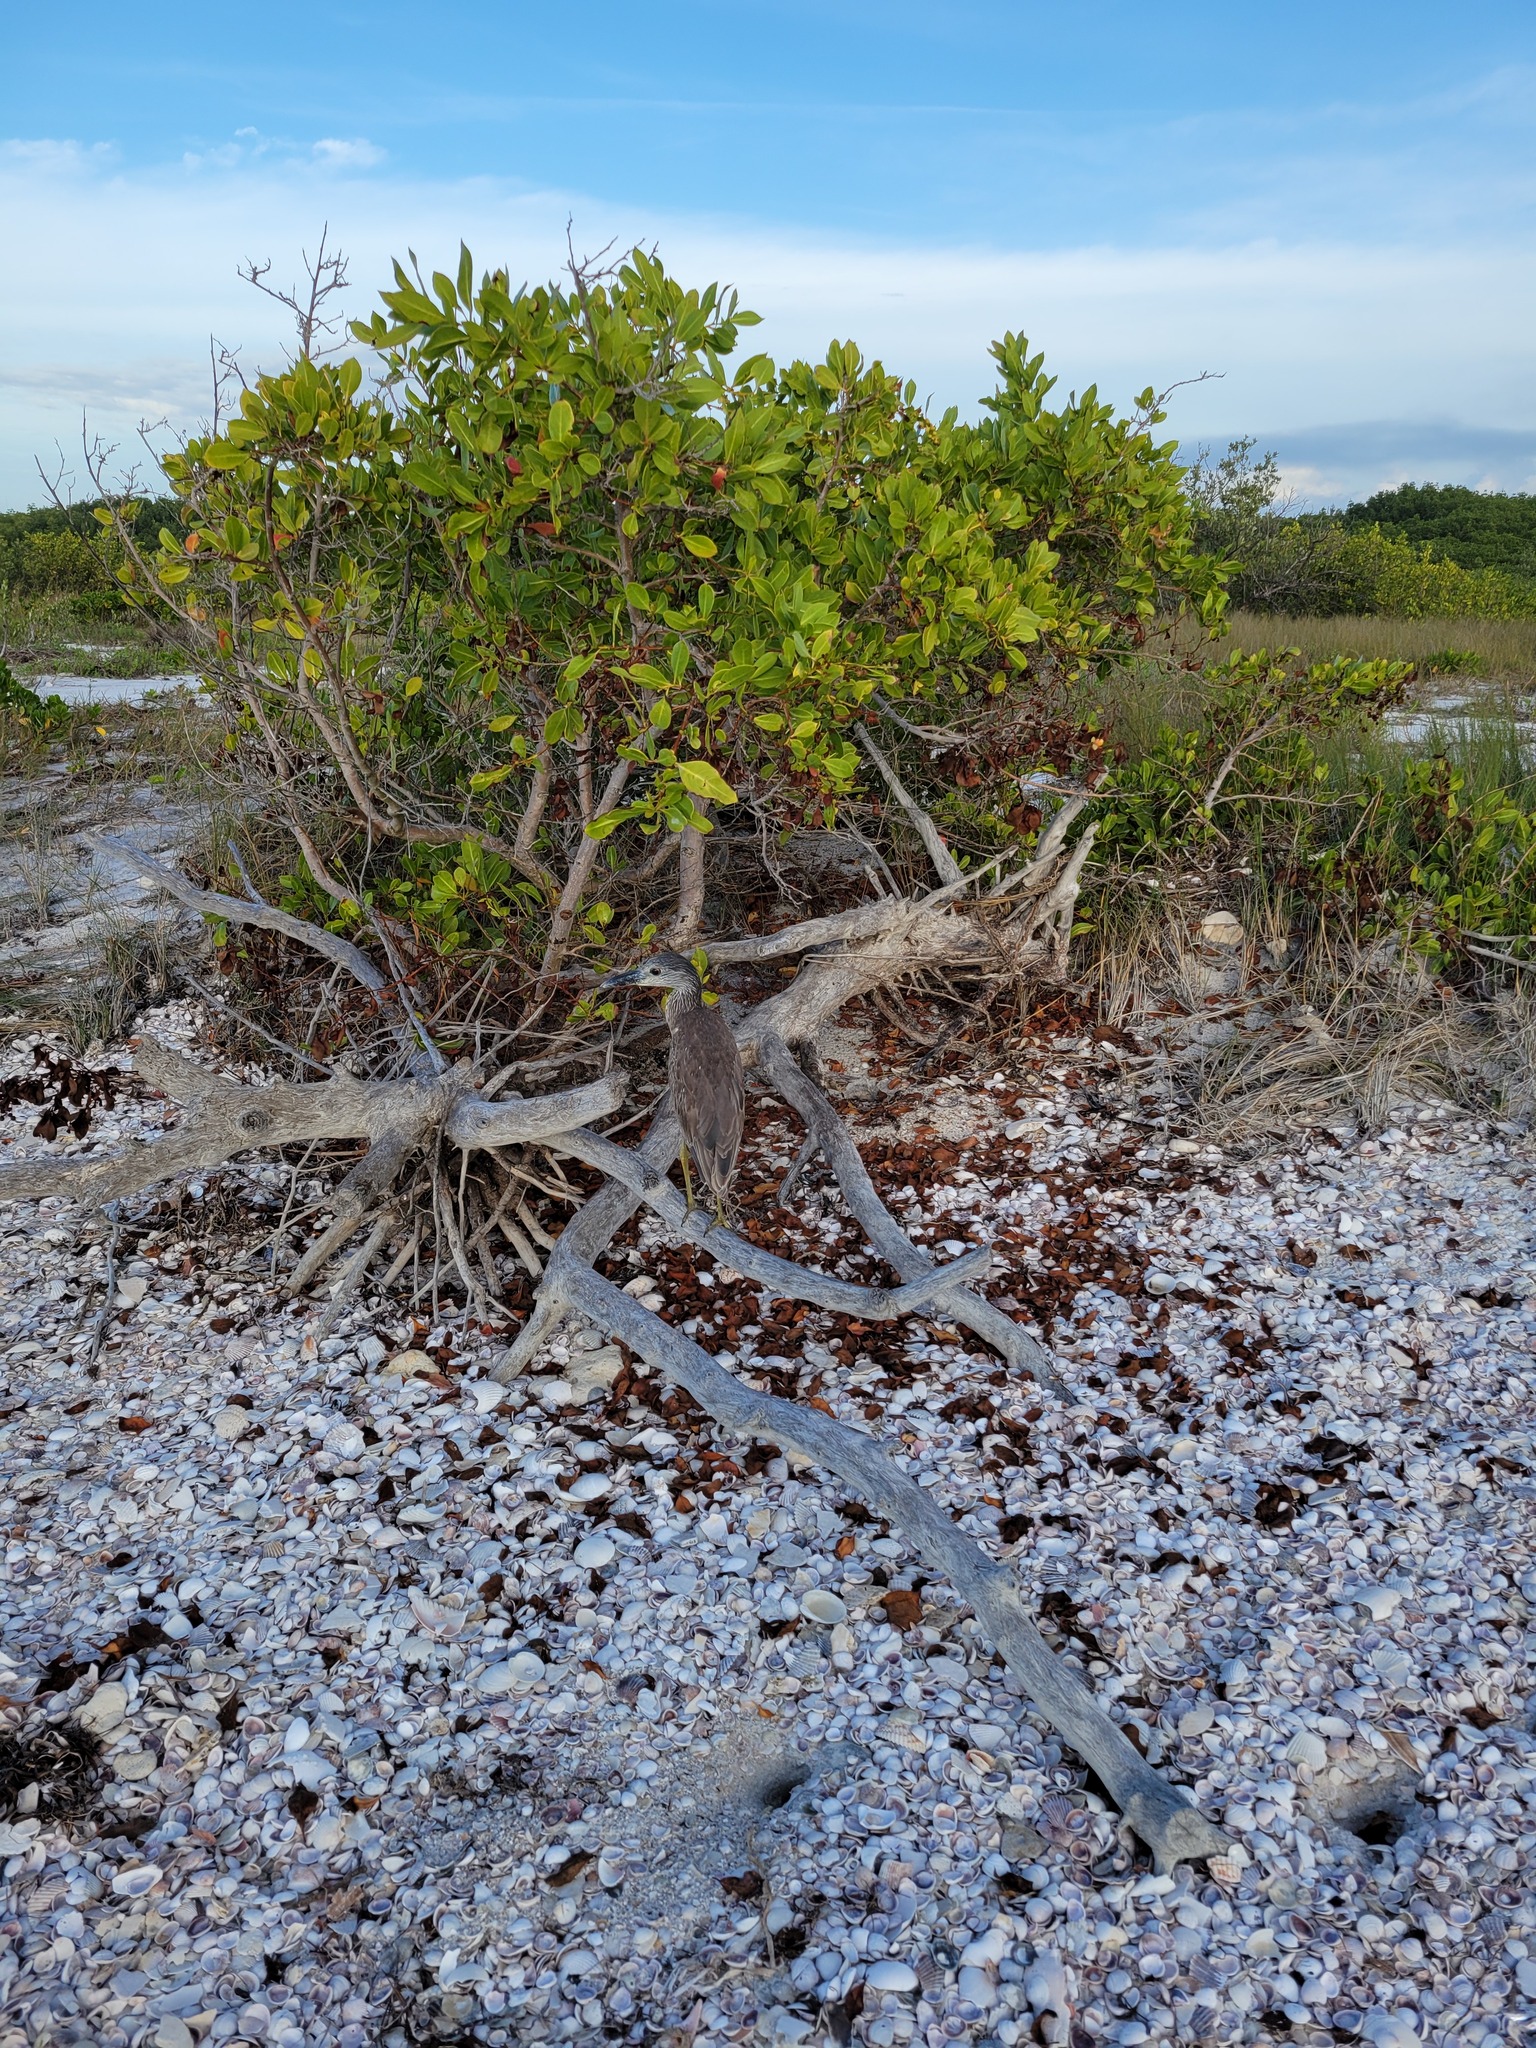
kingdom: Animalia
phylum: Chordata
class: Aves
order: Pelecaniformes
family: Ardeidae
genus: Nyctanassa
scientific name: Nyctanassa violacea
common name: Yellow-crowned night heron
